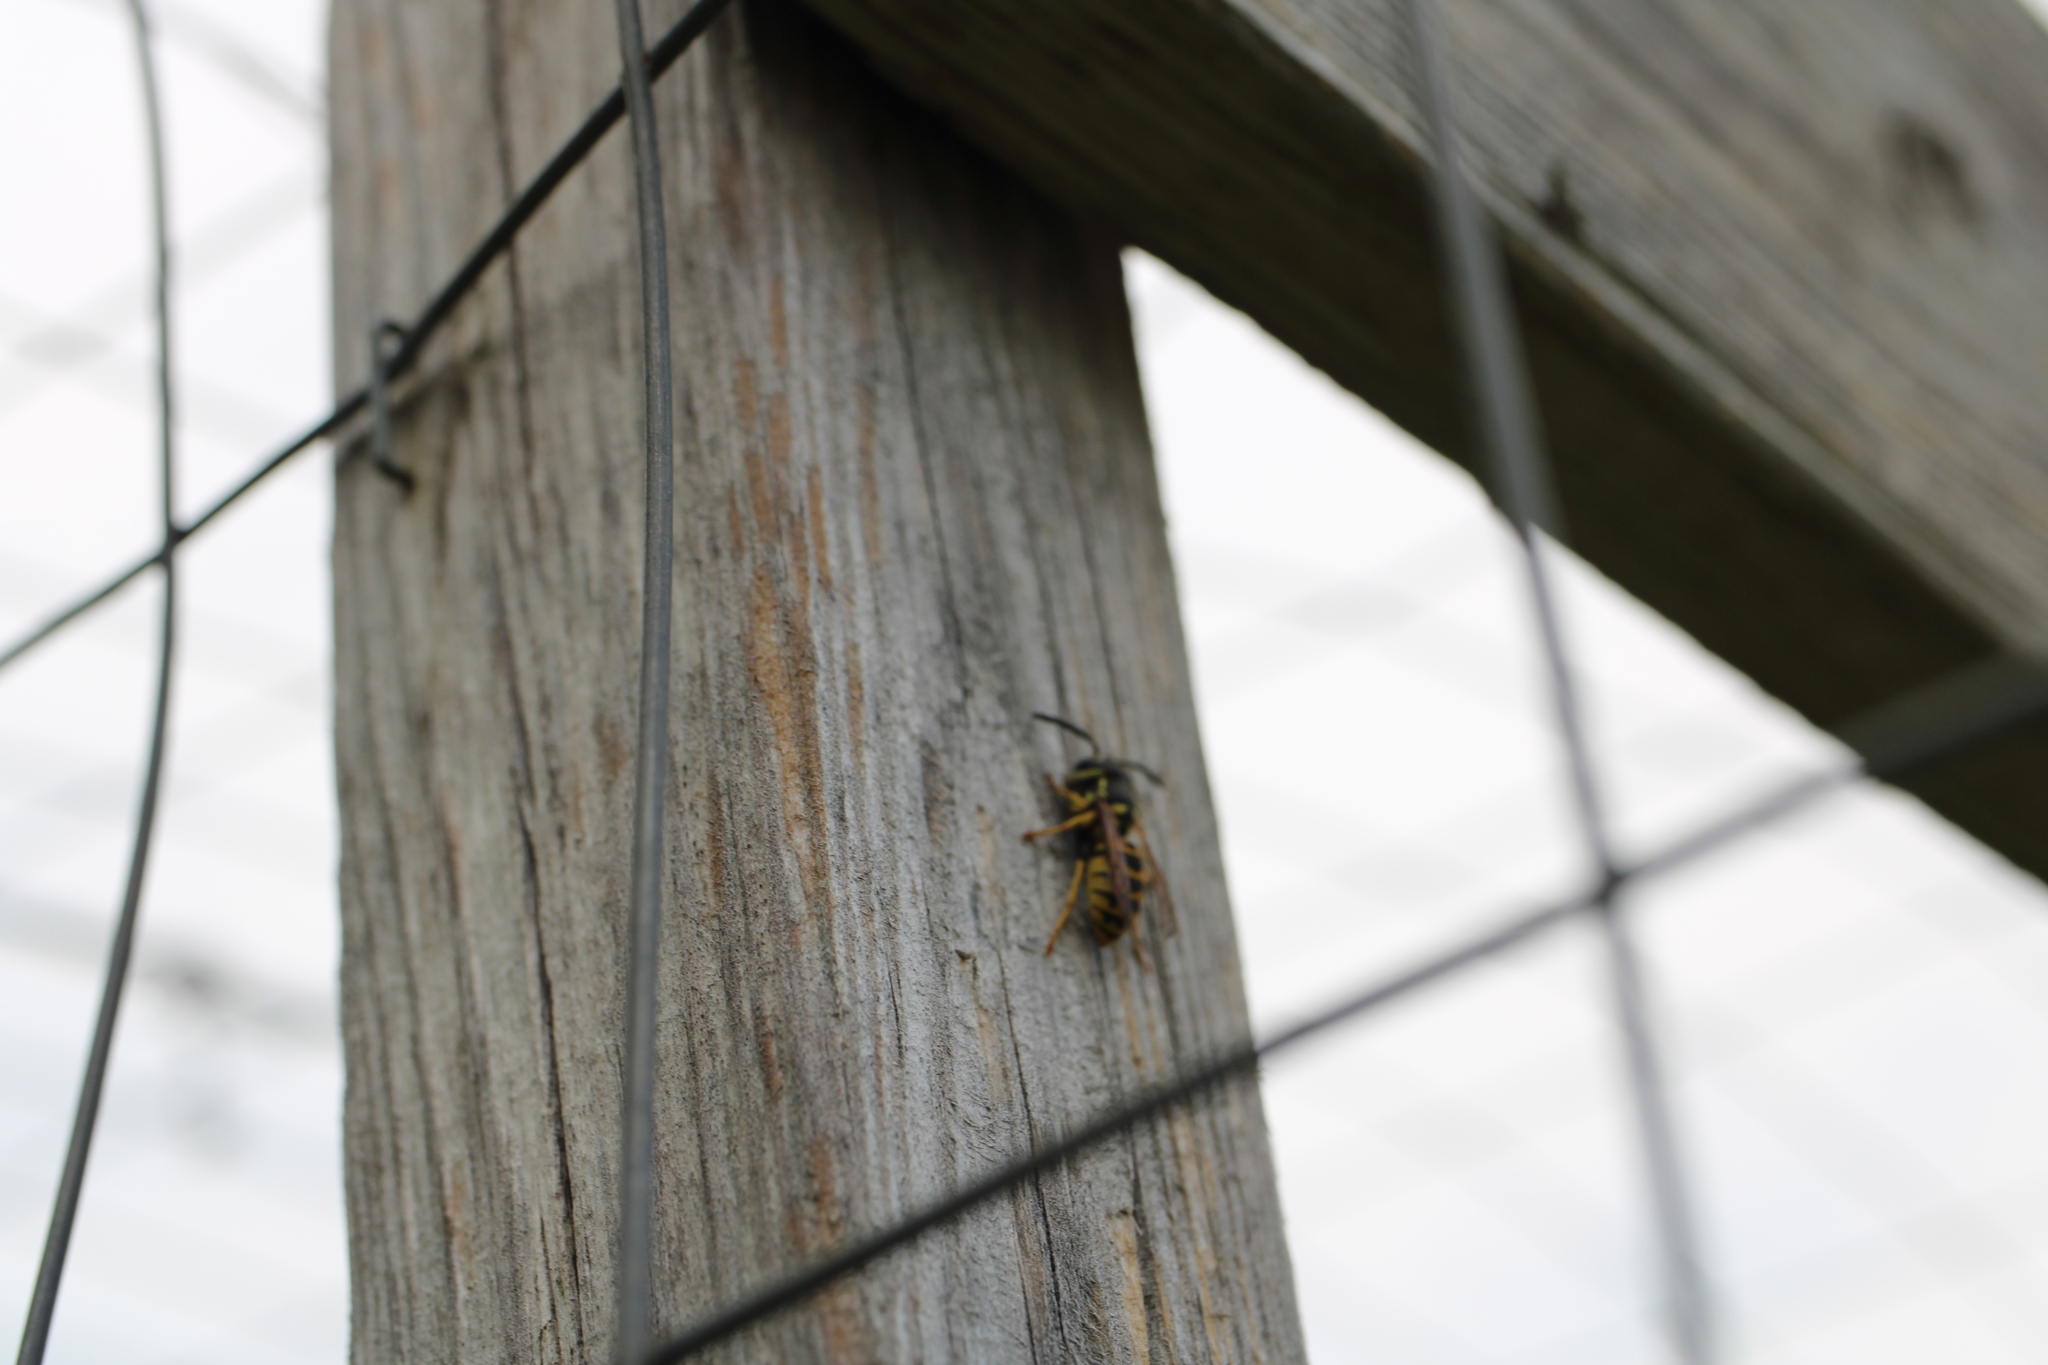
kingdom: Animalia
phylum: Arthropoda
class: Insecta
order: Hymenoptera
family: Vespidae
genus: Vespula
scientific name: Vespula
